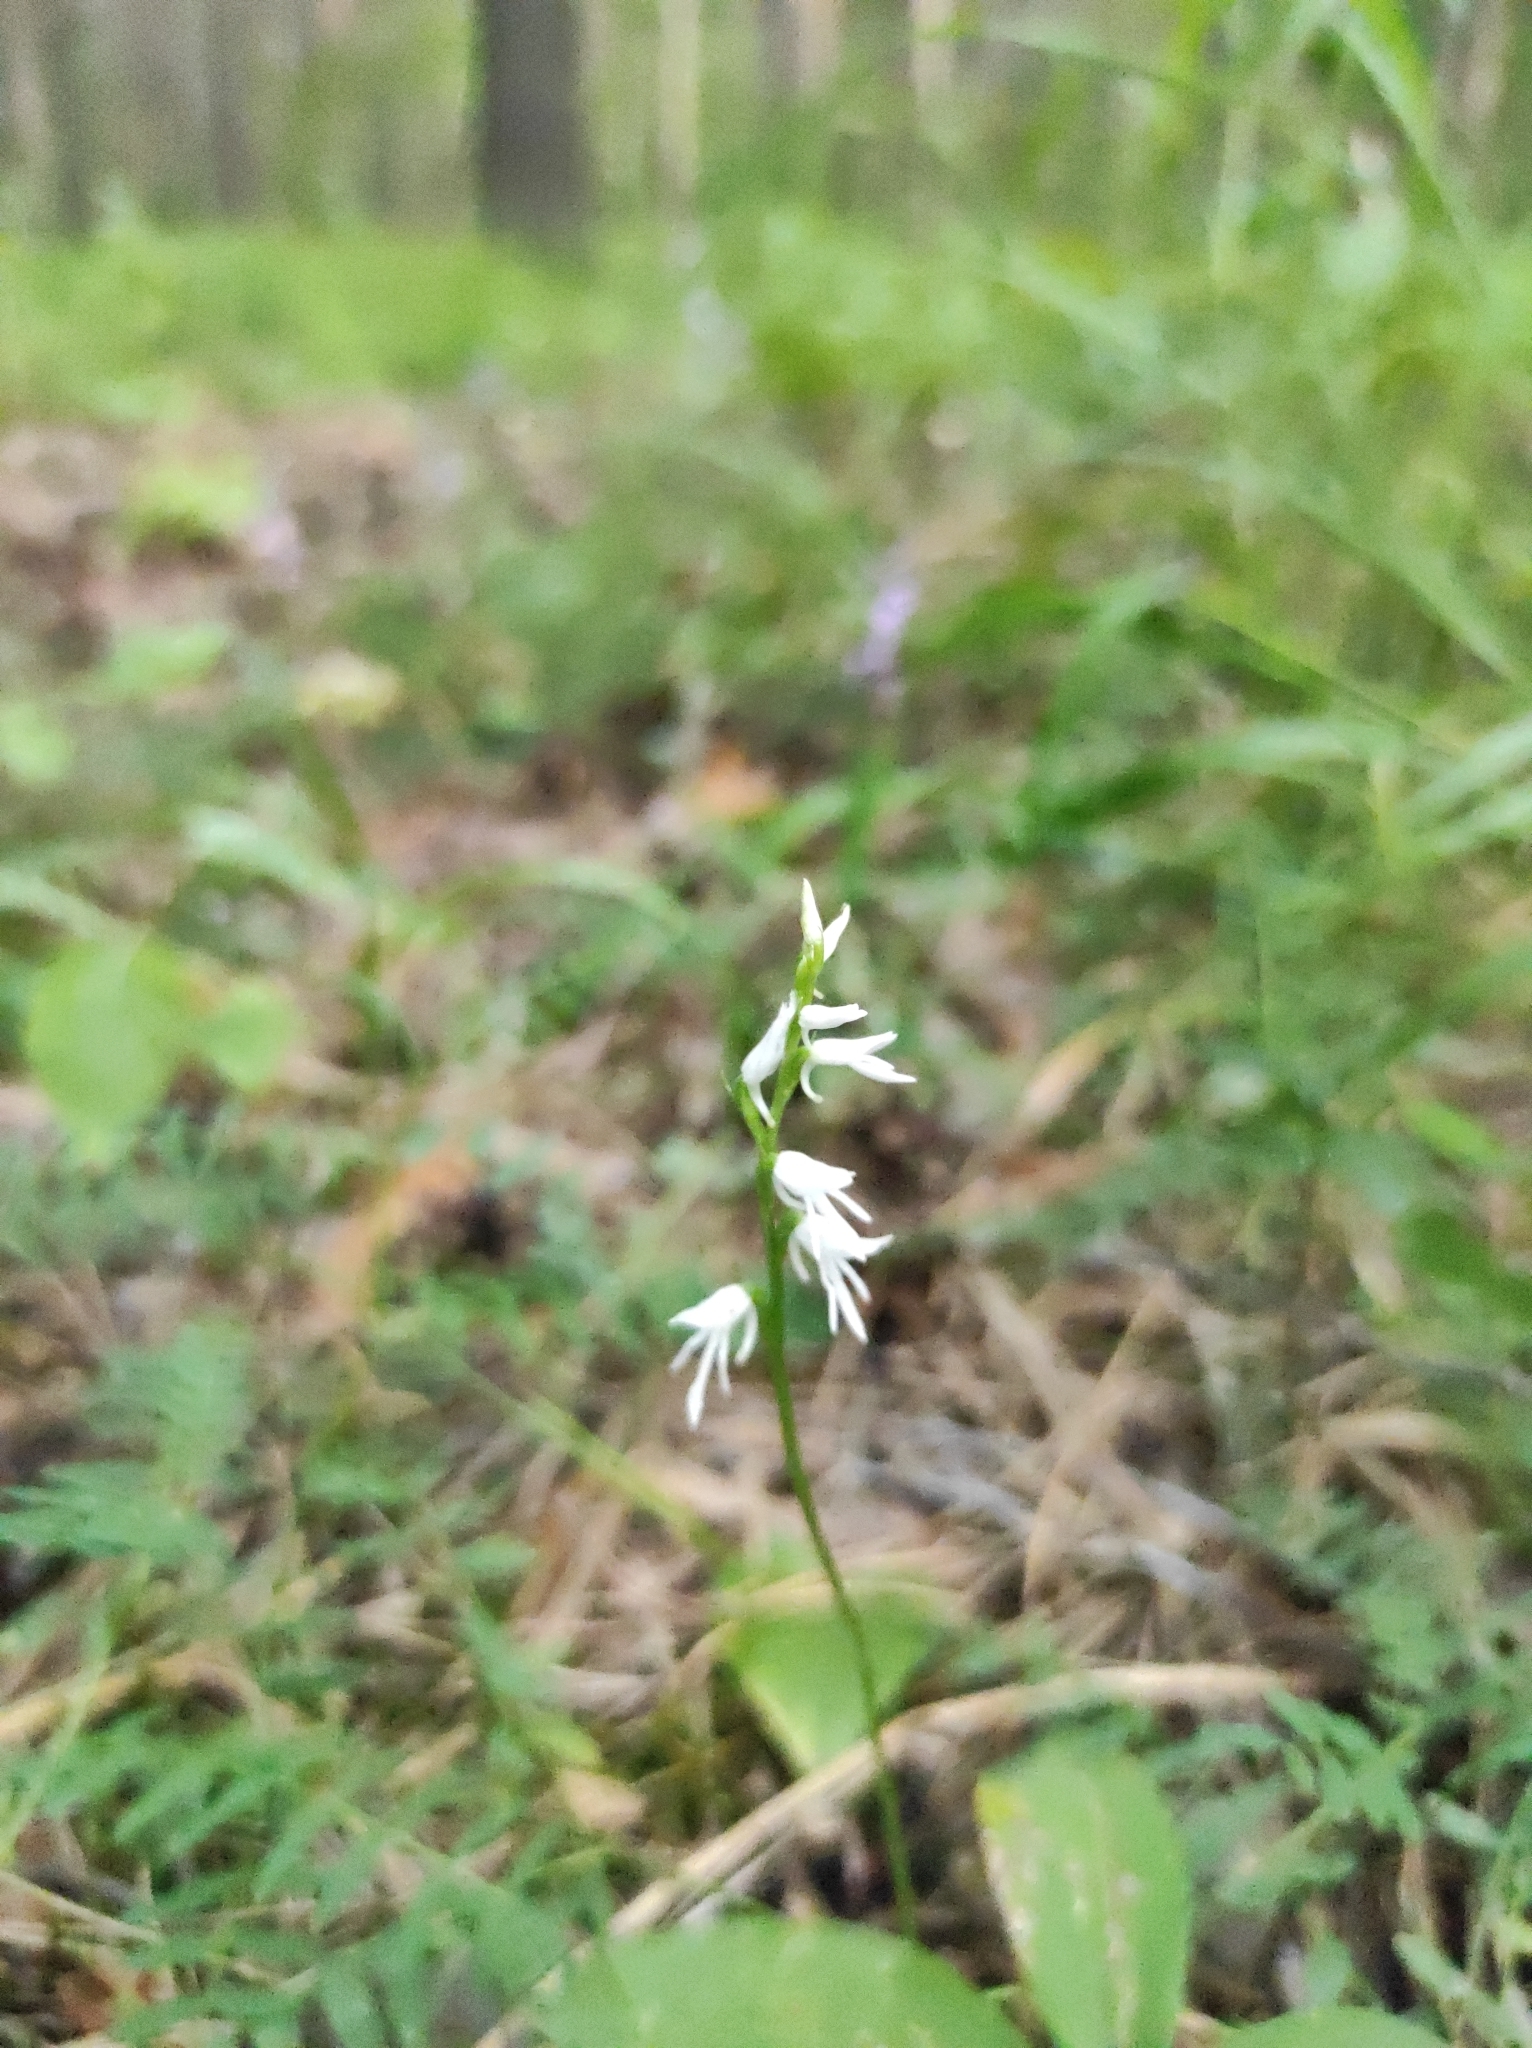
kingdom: Plantae
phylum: Tracheophyta
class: Liliopsida
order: Asparagales
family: Orchidaceae
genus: Hemipilia
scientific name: Hemipilia cucullata
